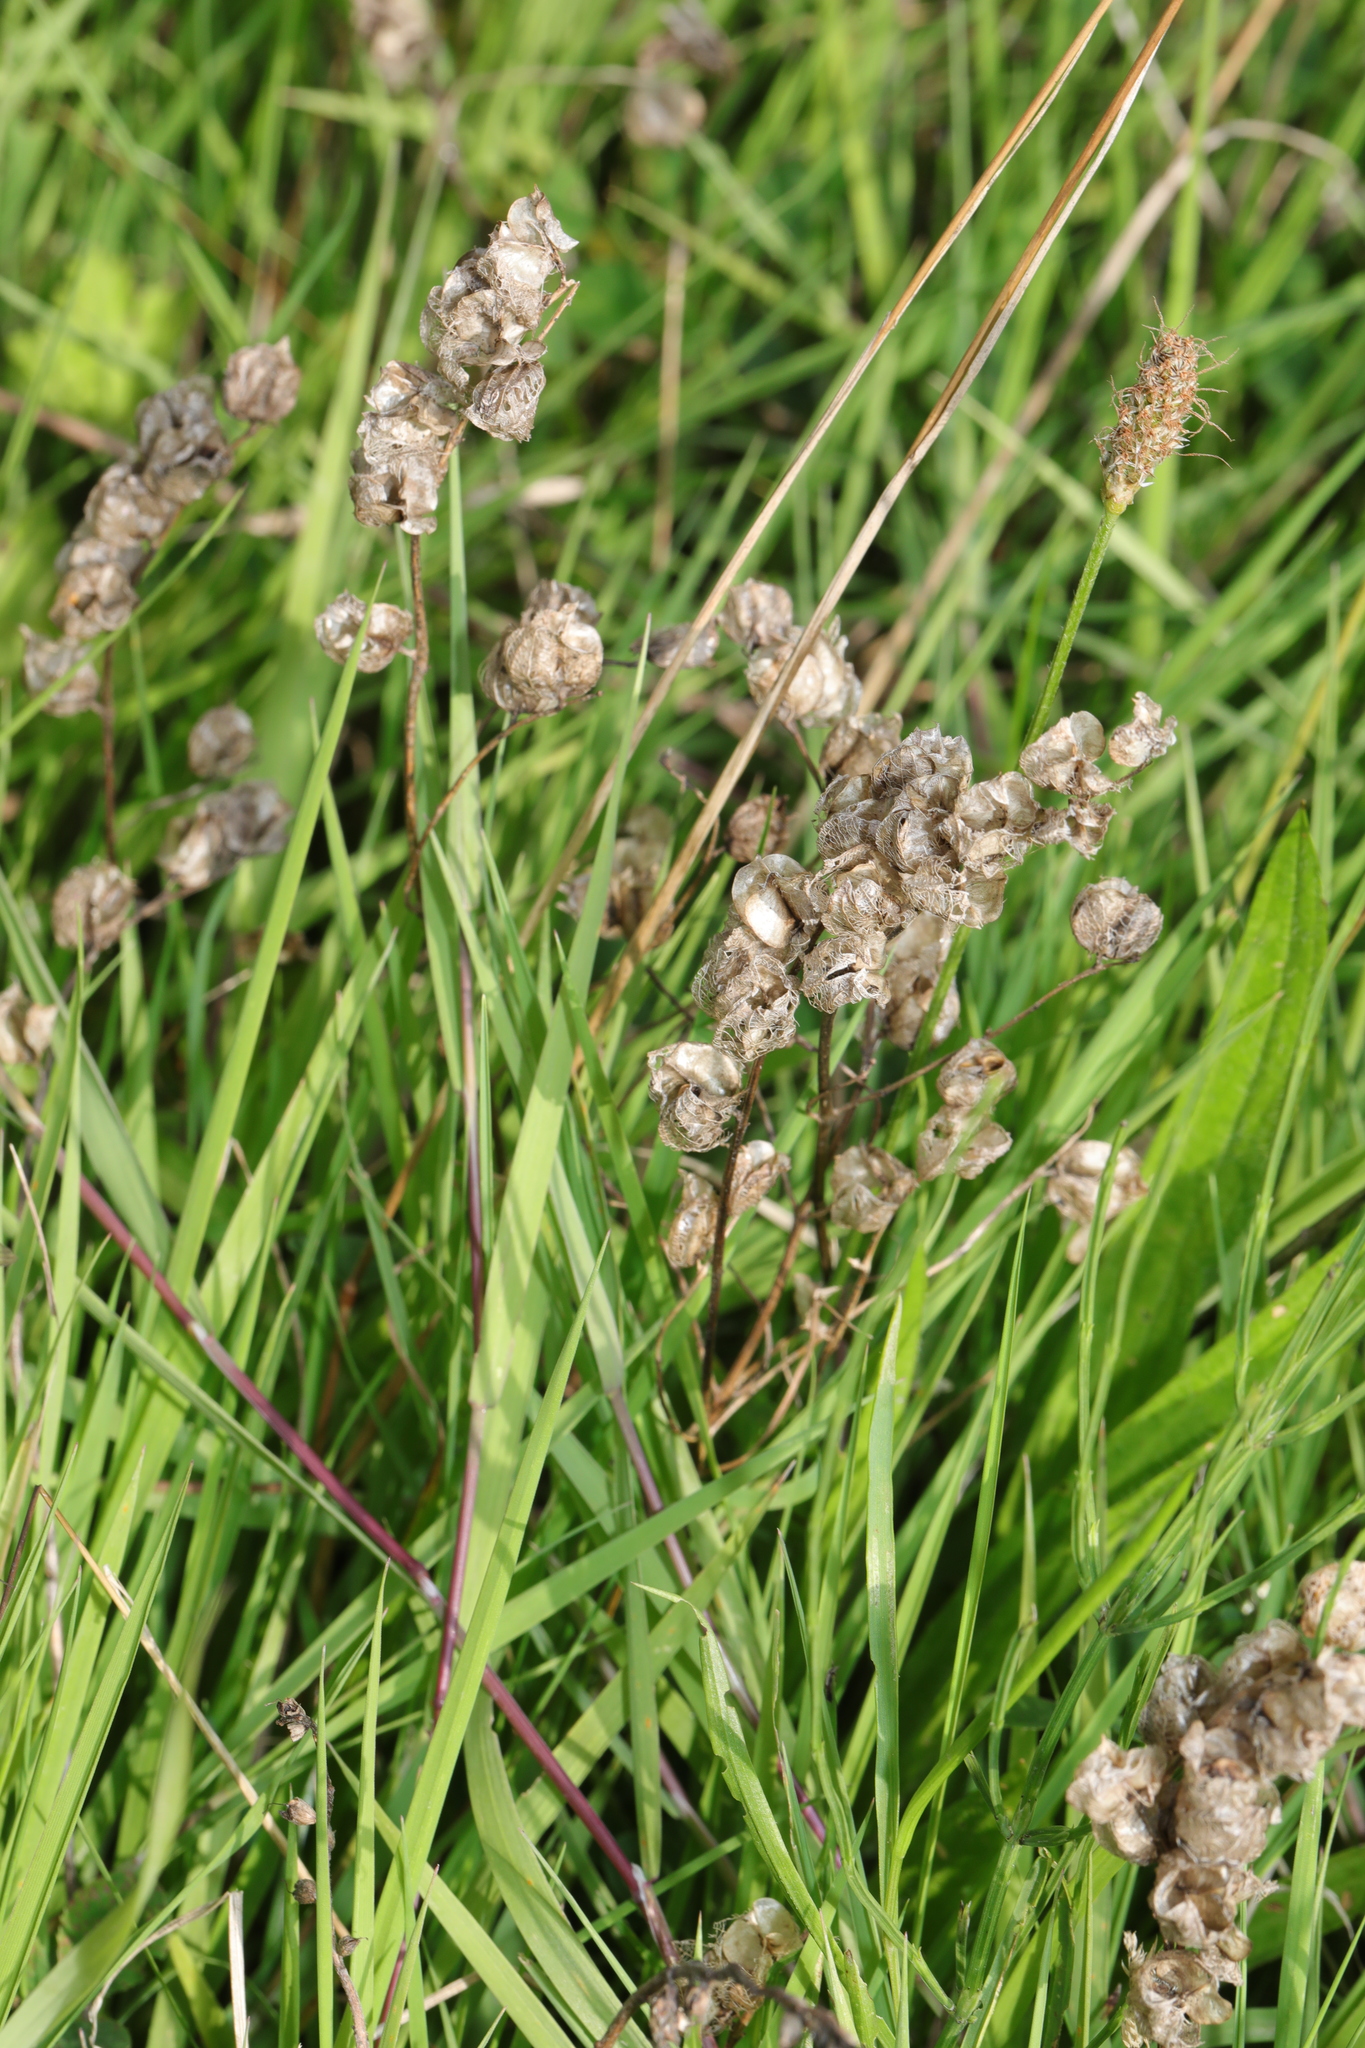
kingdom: Plantae
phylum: Tracheophyta
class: Magnoliopsida
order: Lamiales
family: Orobanchaceae
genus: Rhinanthus
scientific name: Rhinanthus minor
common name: Yellow-rattle
